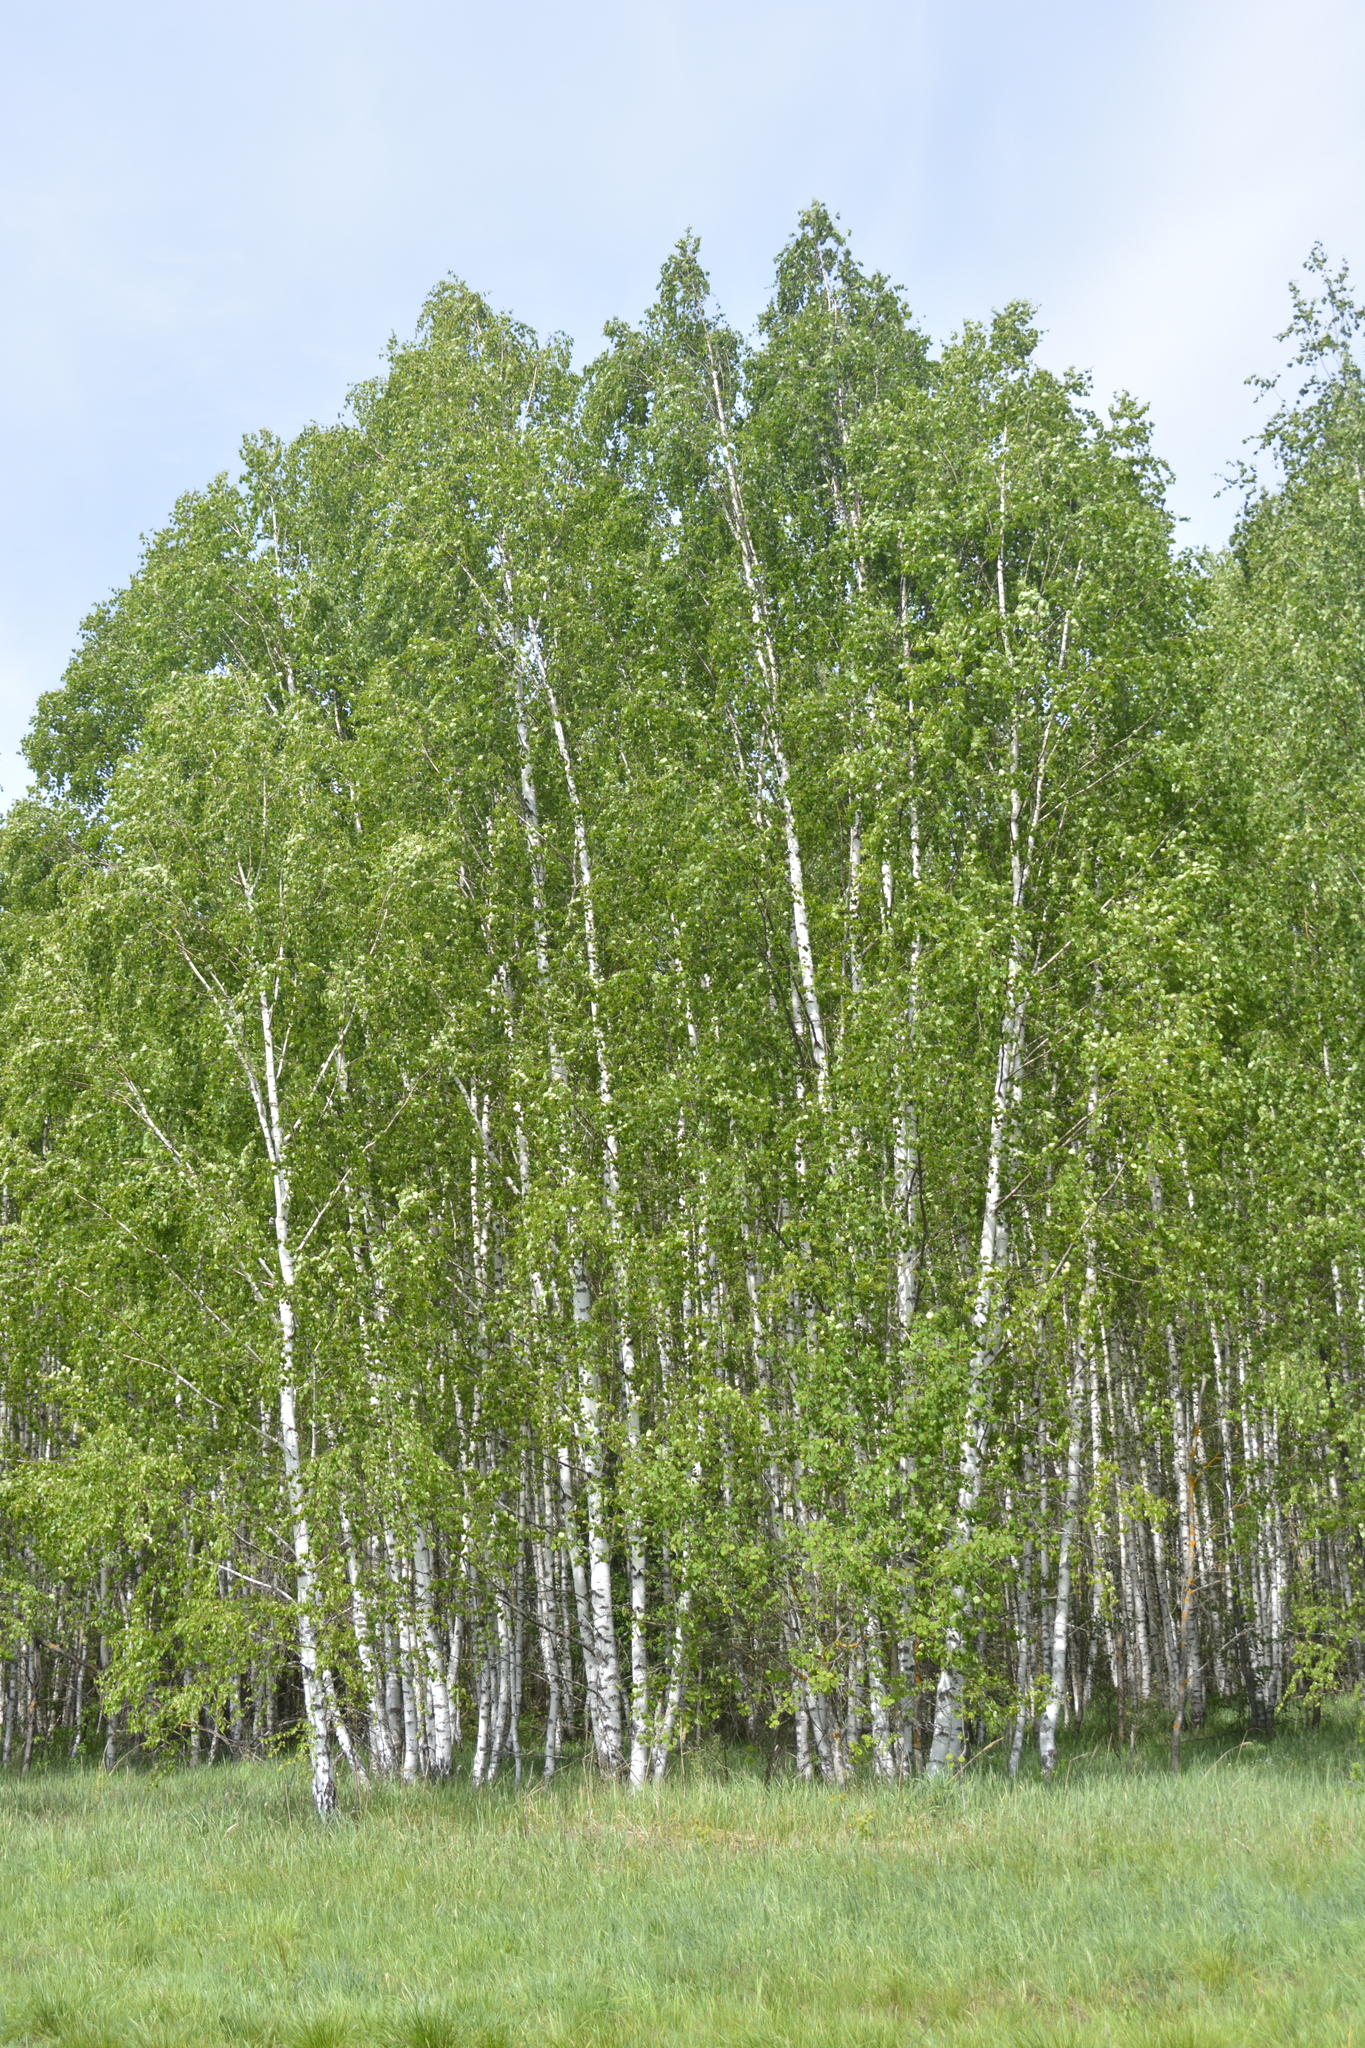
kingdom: Plantae
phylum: Tracheophyta
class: Magnoliopsida
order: Fagales
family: Betulaceae
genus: Betula
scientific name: Betula pendula
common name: Silver birch
